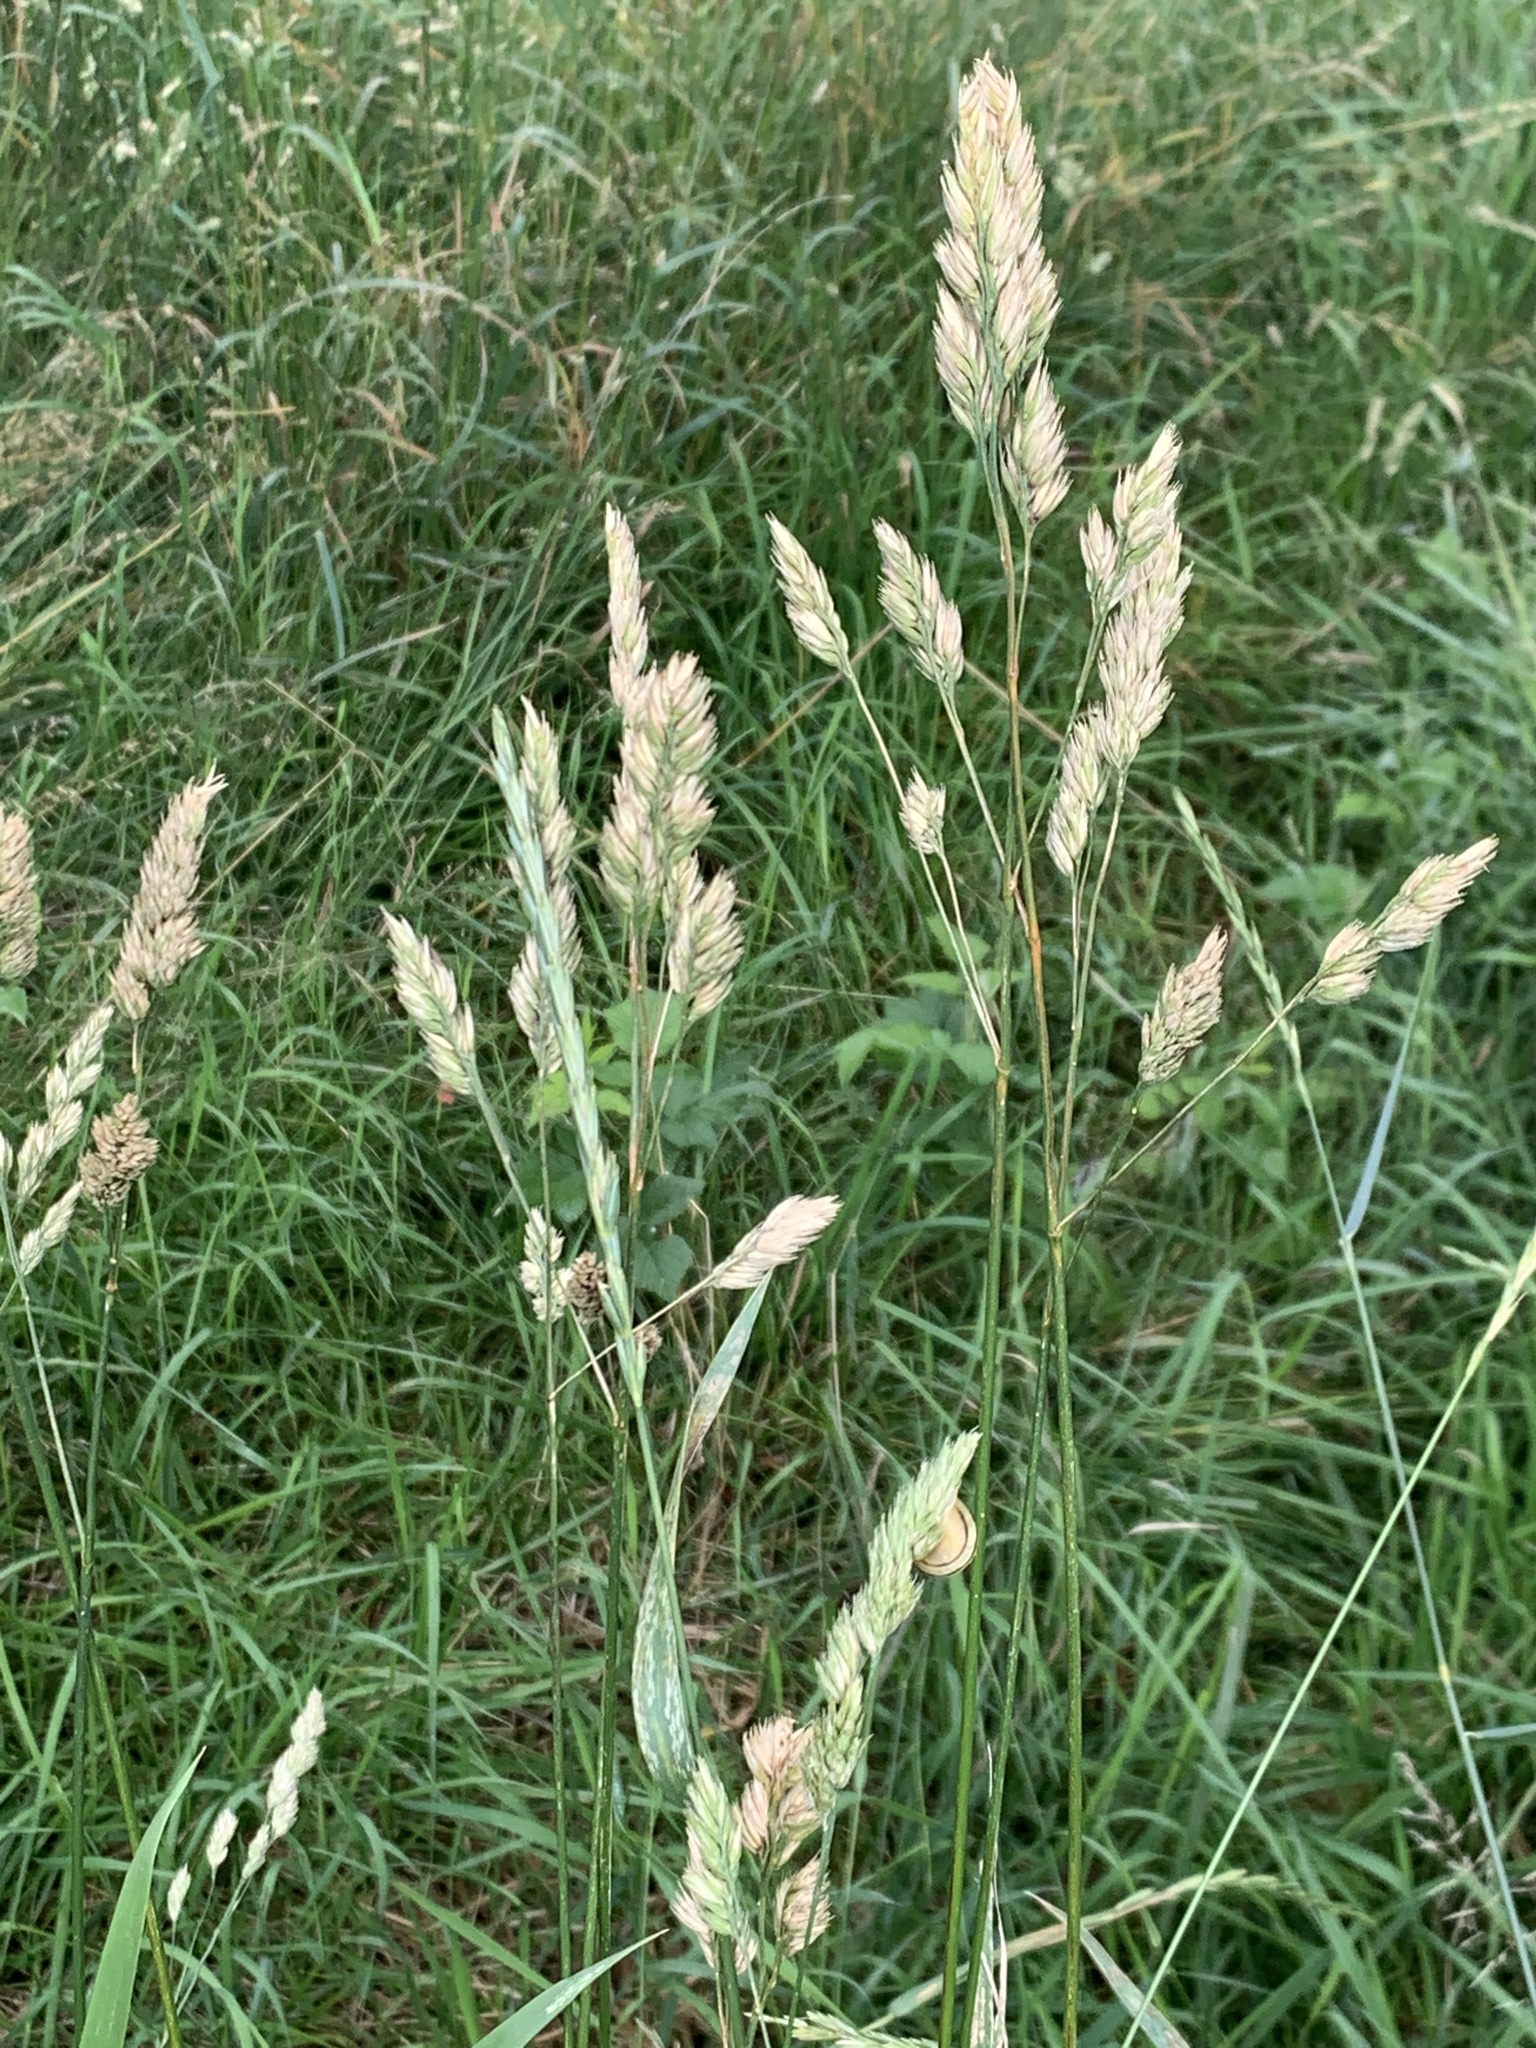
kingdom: Plantae
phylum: Tracheophyta
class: Liliopsida
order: Poales
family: Poaceae
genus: Dactylis
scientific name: Dactylis glomerata
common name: Orchardgrass
